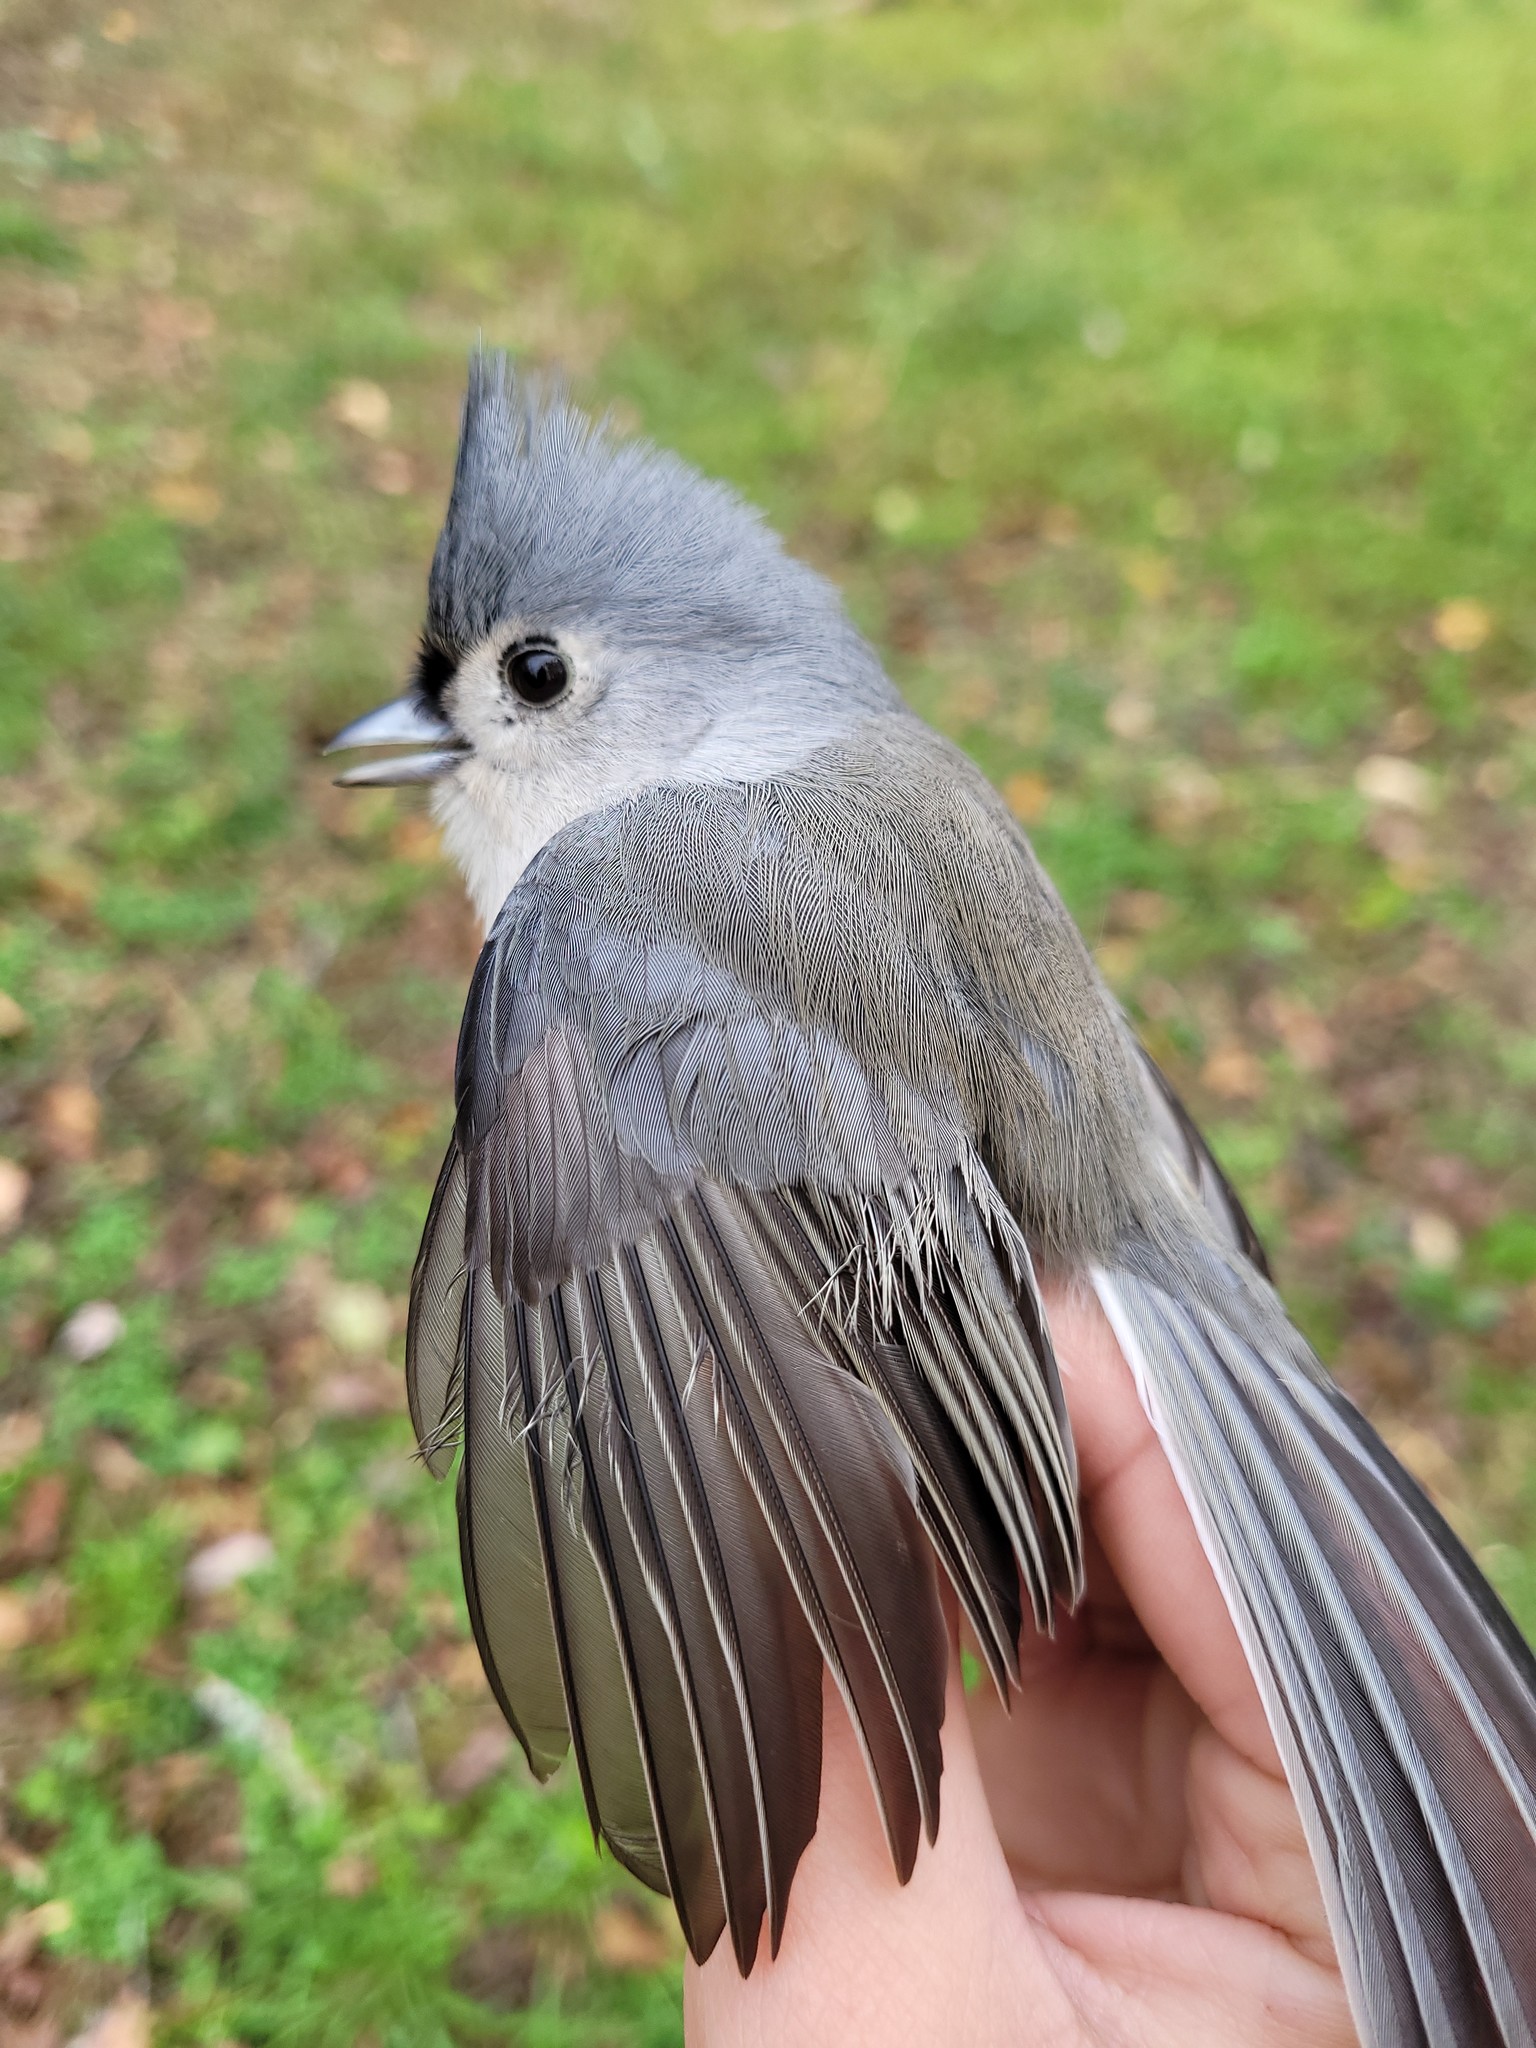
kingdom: Animalia
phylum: Chordata
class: Aves
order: Passeriformes
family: Paridae
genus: Baeolophus
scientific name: Baeolophus bicolor
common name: Tufted titmouse
